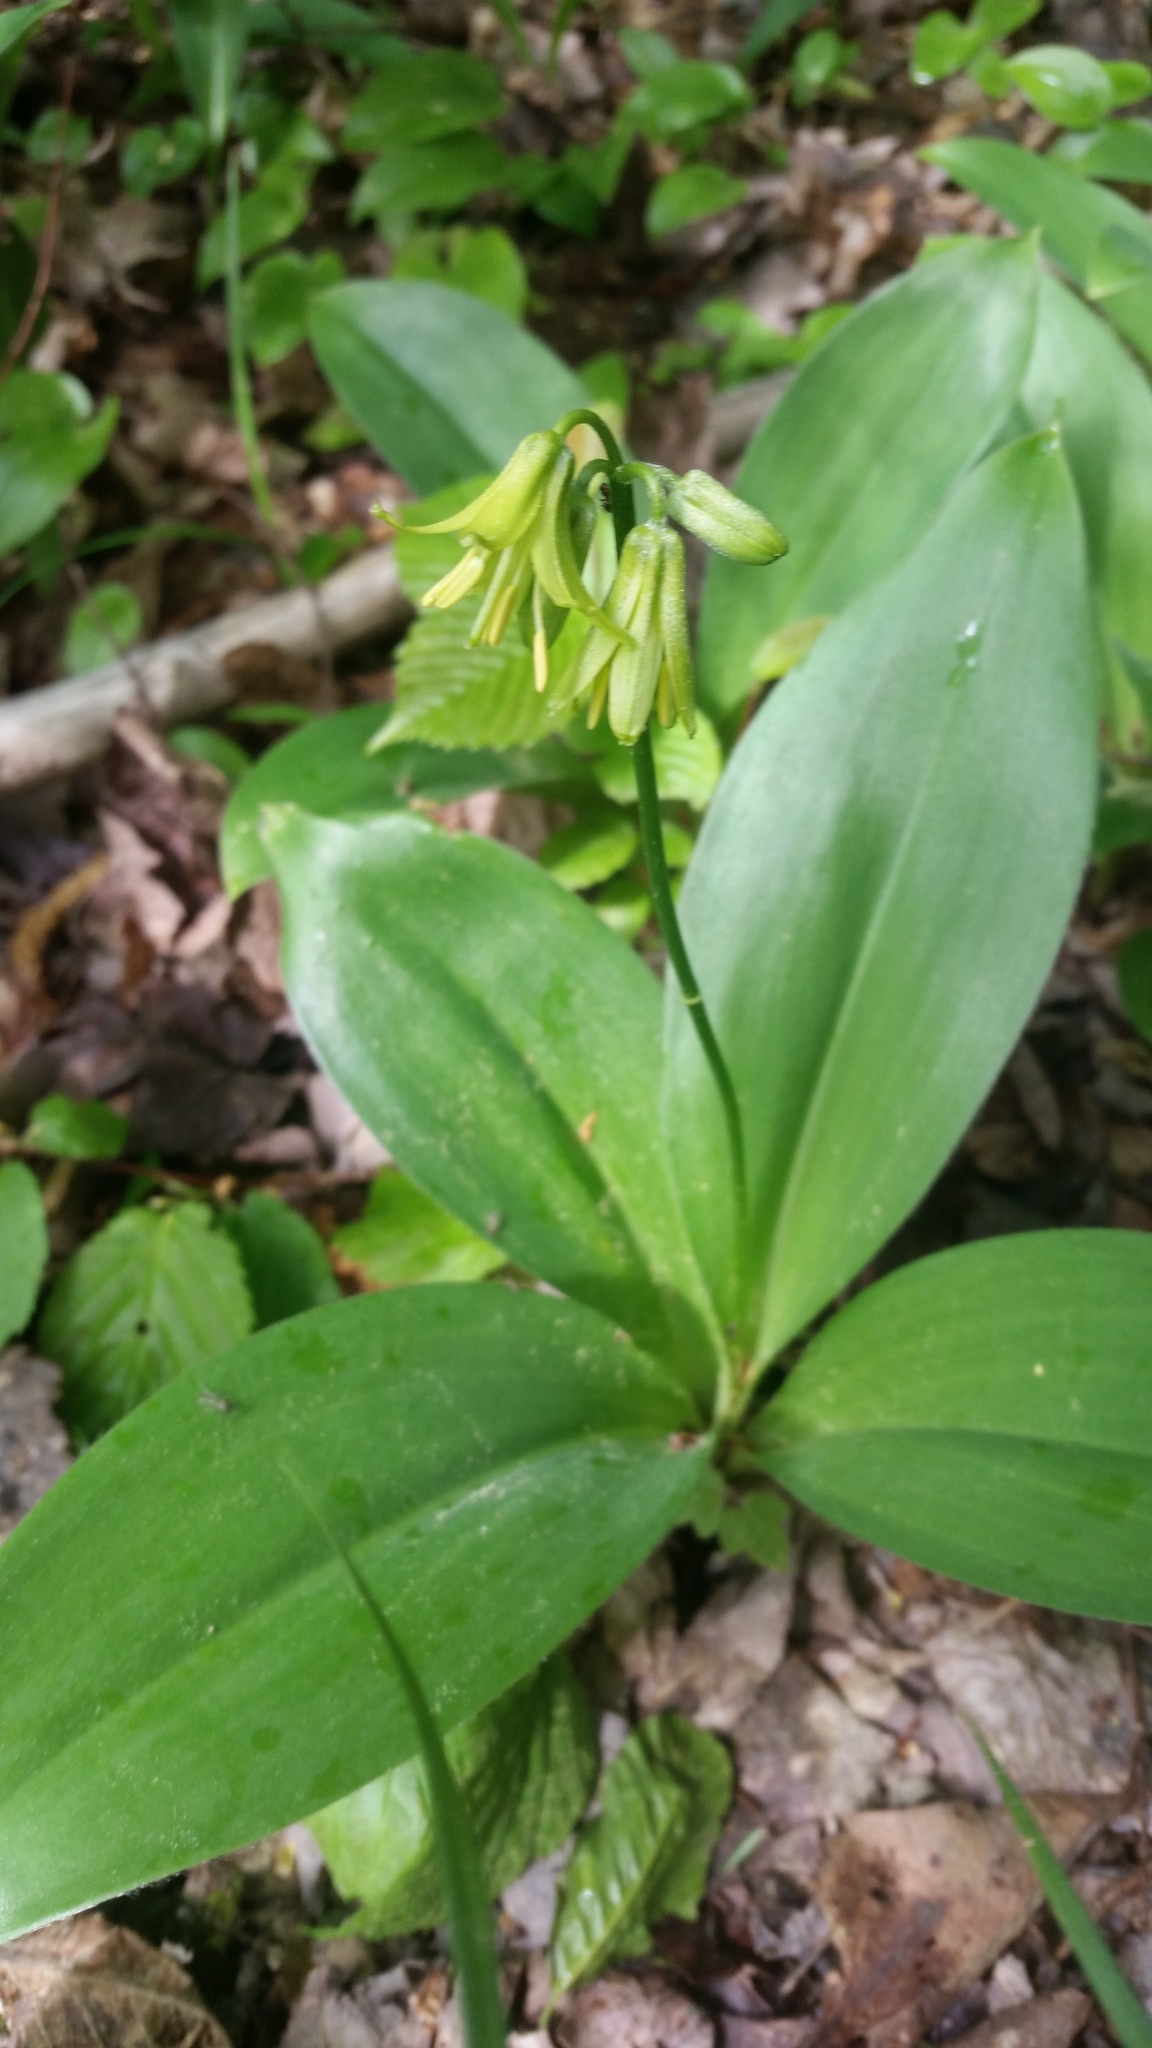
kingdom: Plantae
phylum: Tracheophyta
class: Liliopsida
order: Liliales
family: Liliaceae
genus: Clintonia
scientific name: Clintonia borealis
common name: Yellow clintonia
